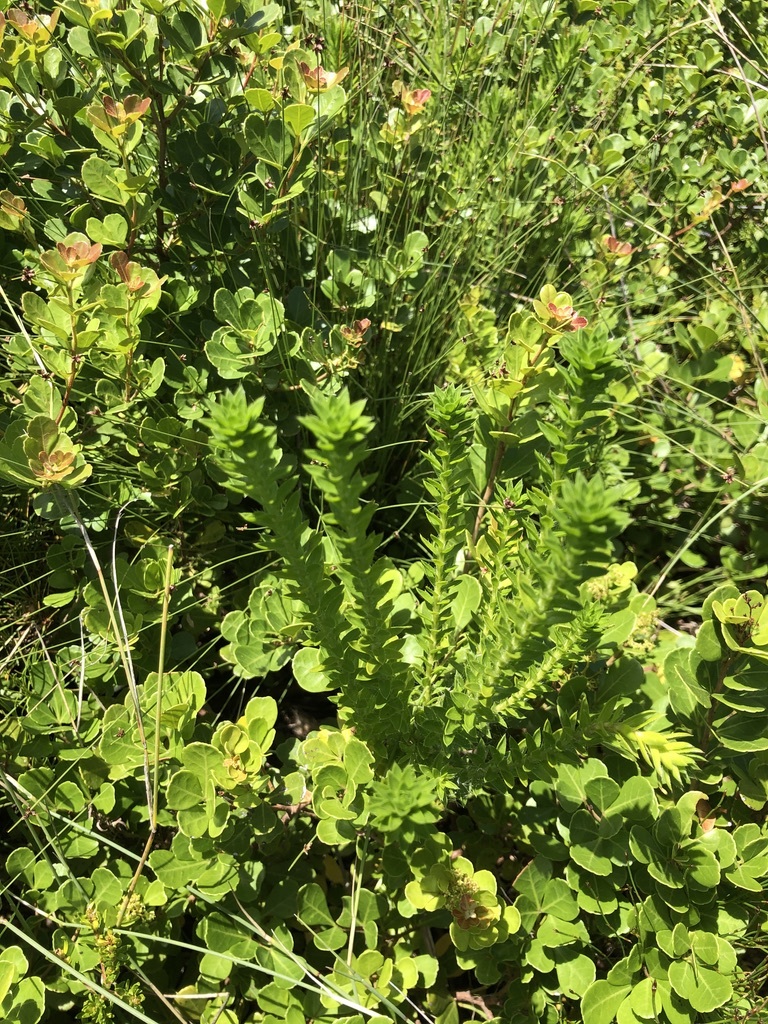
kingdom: Plantae
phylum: Tracheophyta
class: Magnoliopsida
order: Asterales
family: Asteraceae
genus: Felicia
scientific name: Felicia echinata
